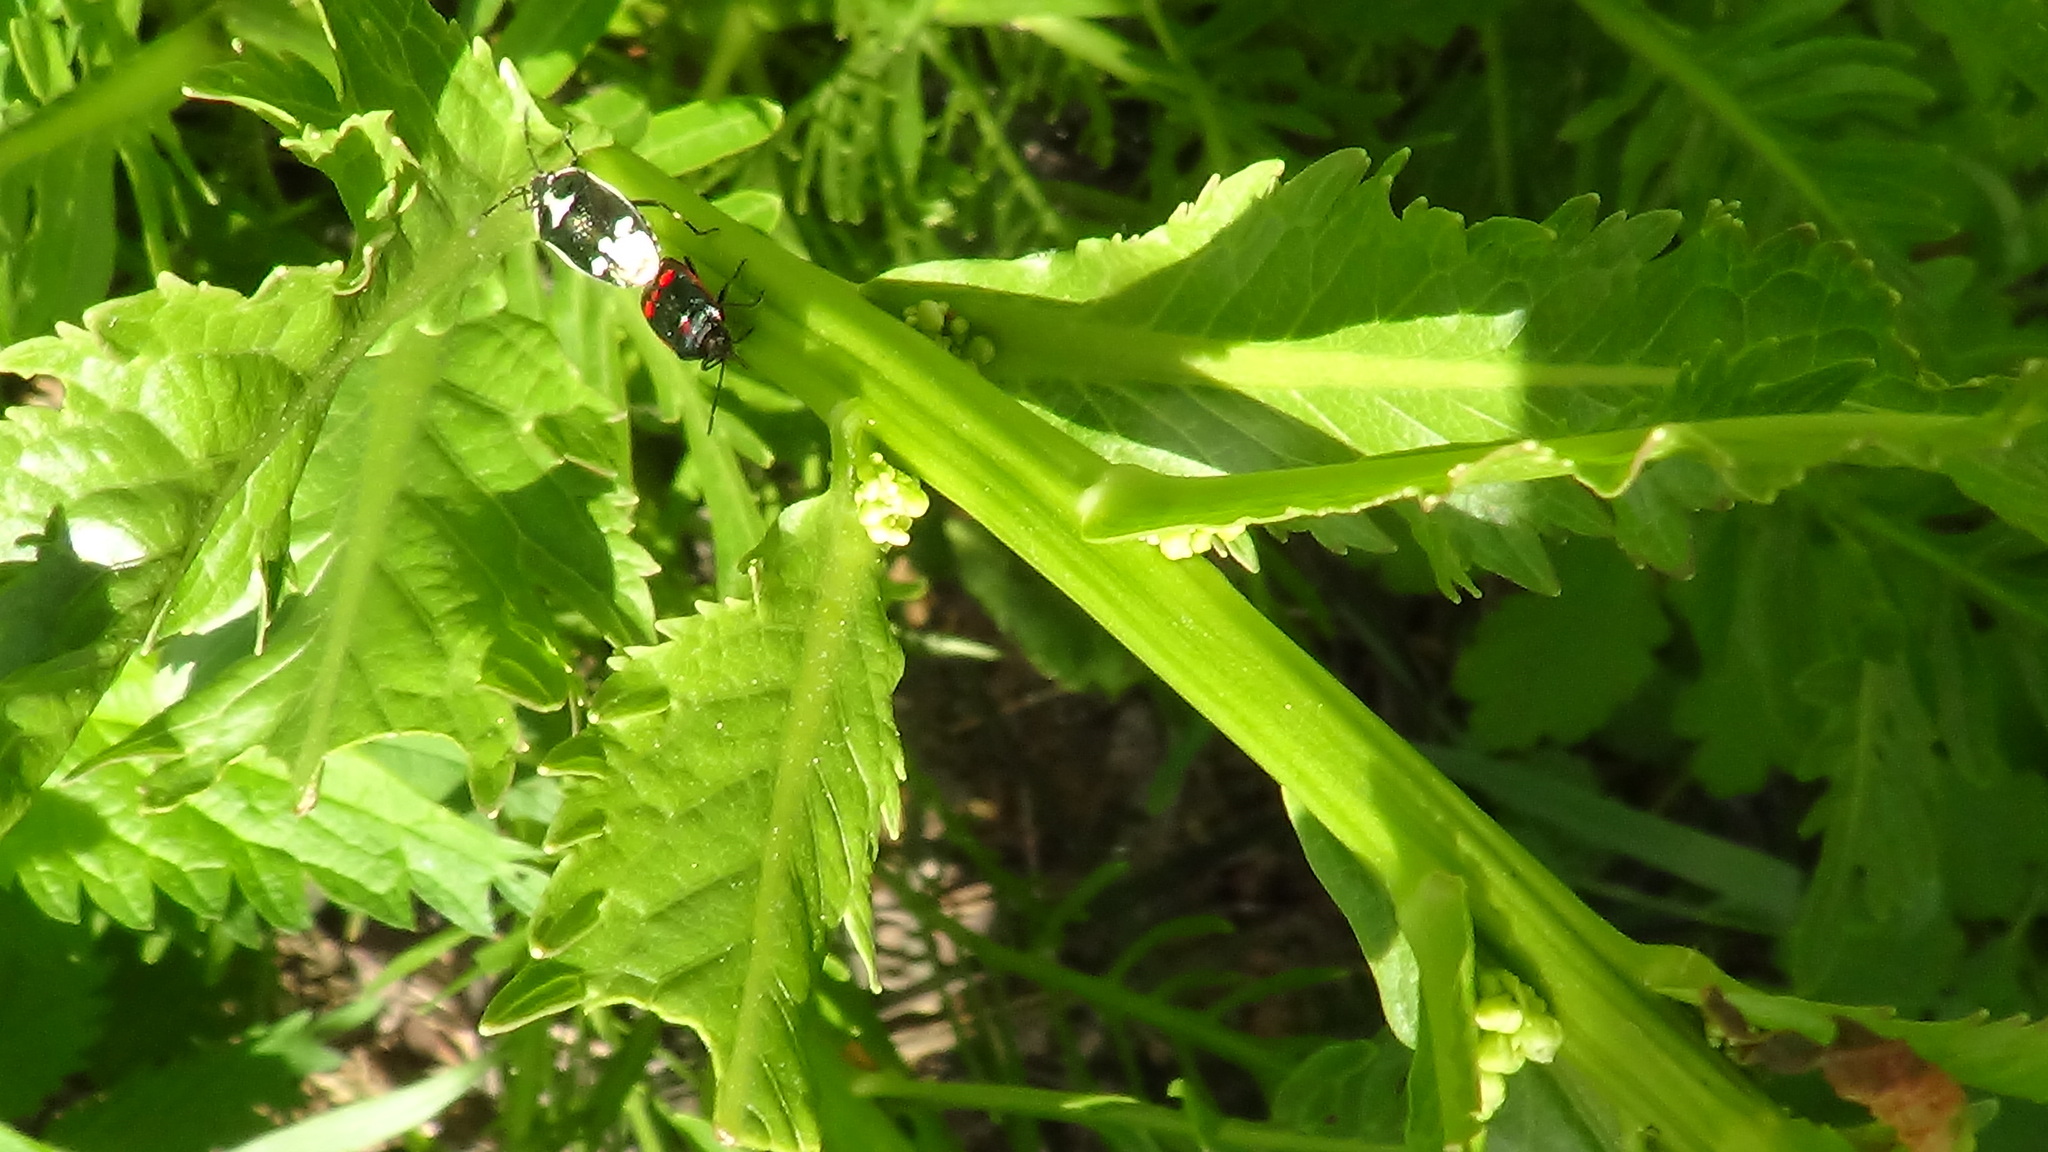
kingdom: Animalia
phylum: Arthropoda
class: Insecta
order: Hemiptera
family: Pentatomidae
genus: Eurydema
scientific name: Eurydema oleracea
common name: Cabbage bug
